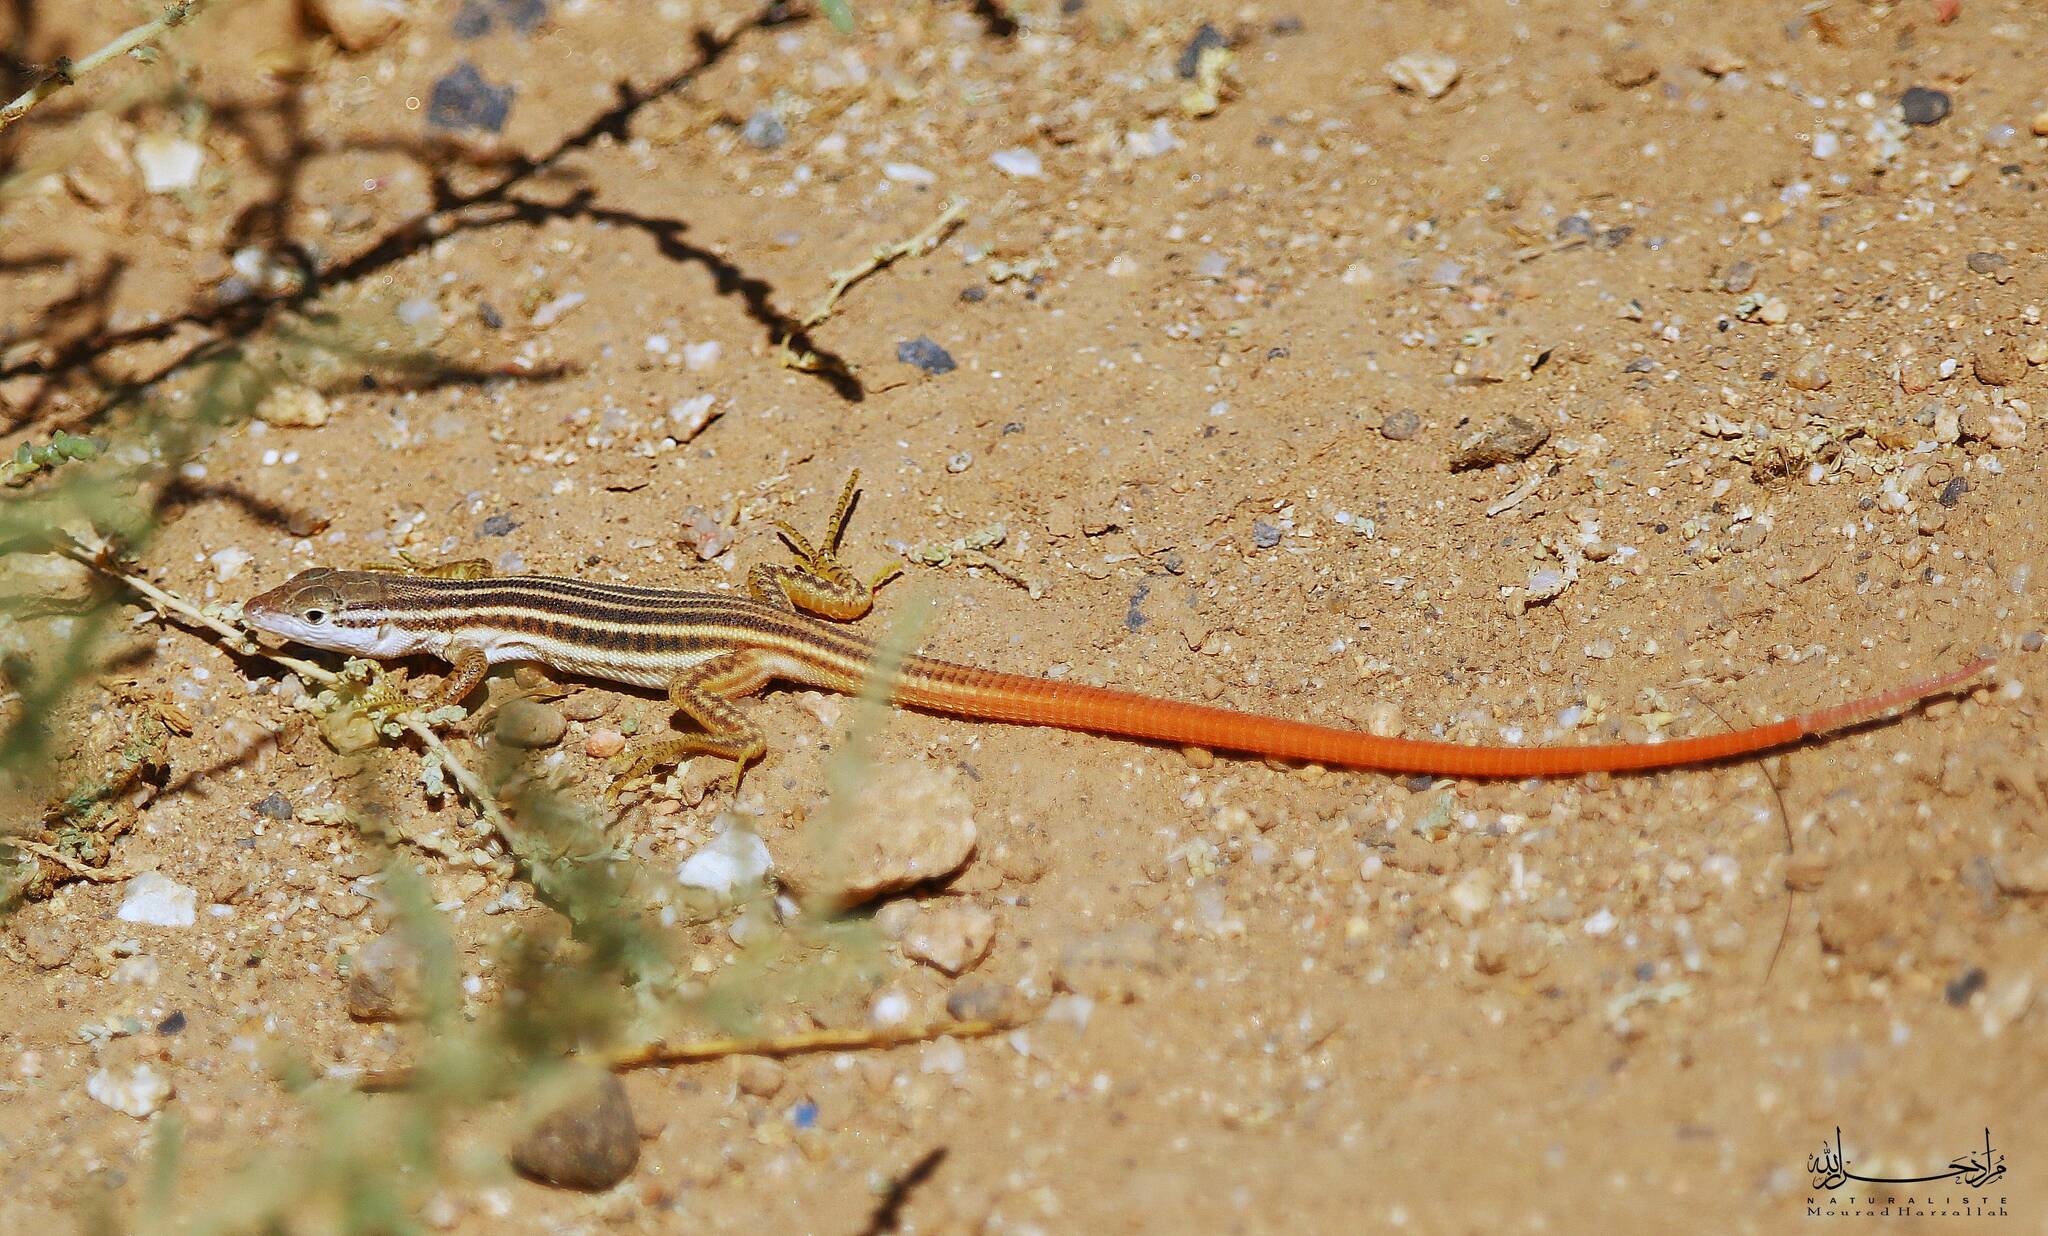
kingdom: Animalia
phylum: Chordata
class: Squamata
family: Lacertidae
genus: Philochortus
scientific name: Philochortus zolii
